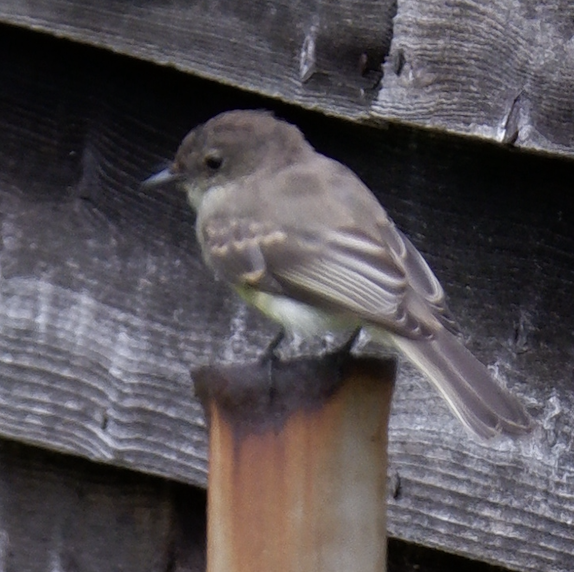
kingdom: Animalia
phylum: Chordata
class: Aves
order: Passeriformes
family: Tyrannidae
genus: Sayornis
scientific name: Sayornis phoebe
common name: Eastern phoebe
